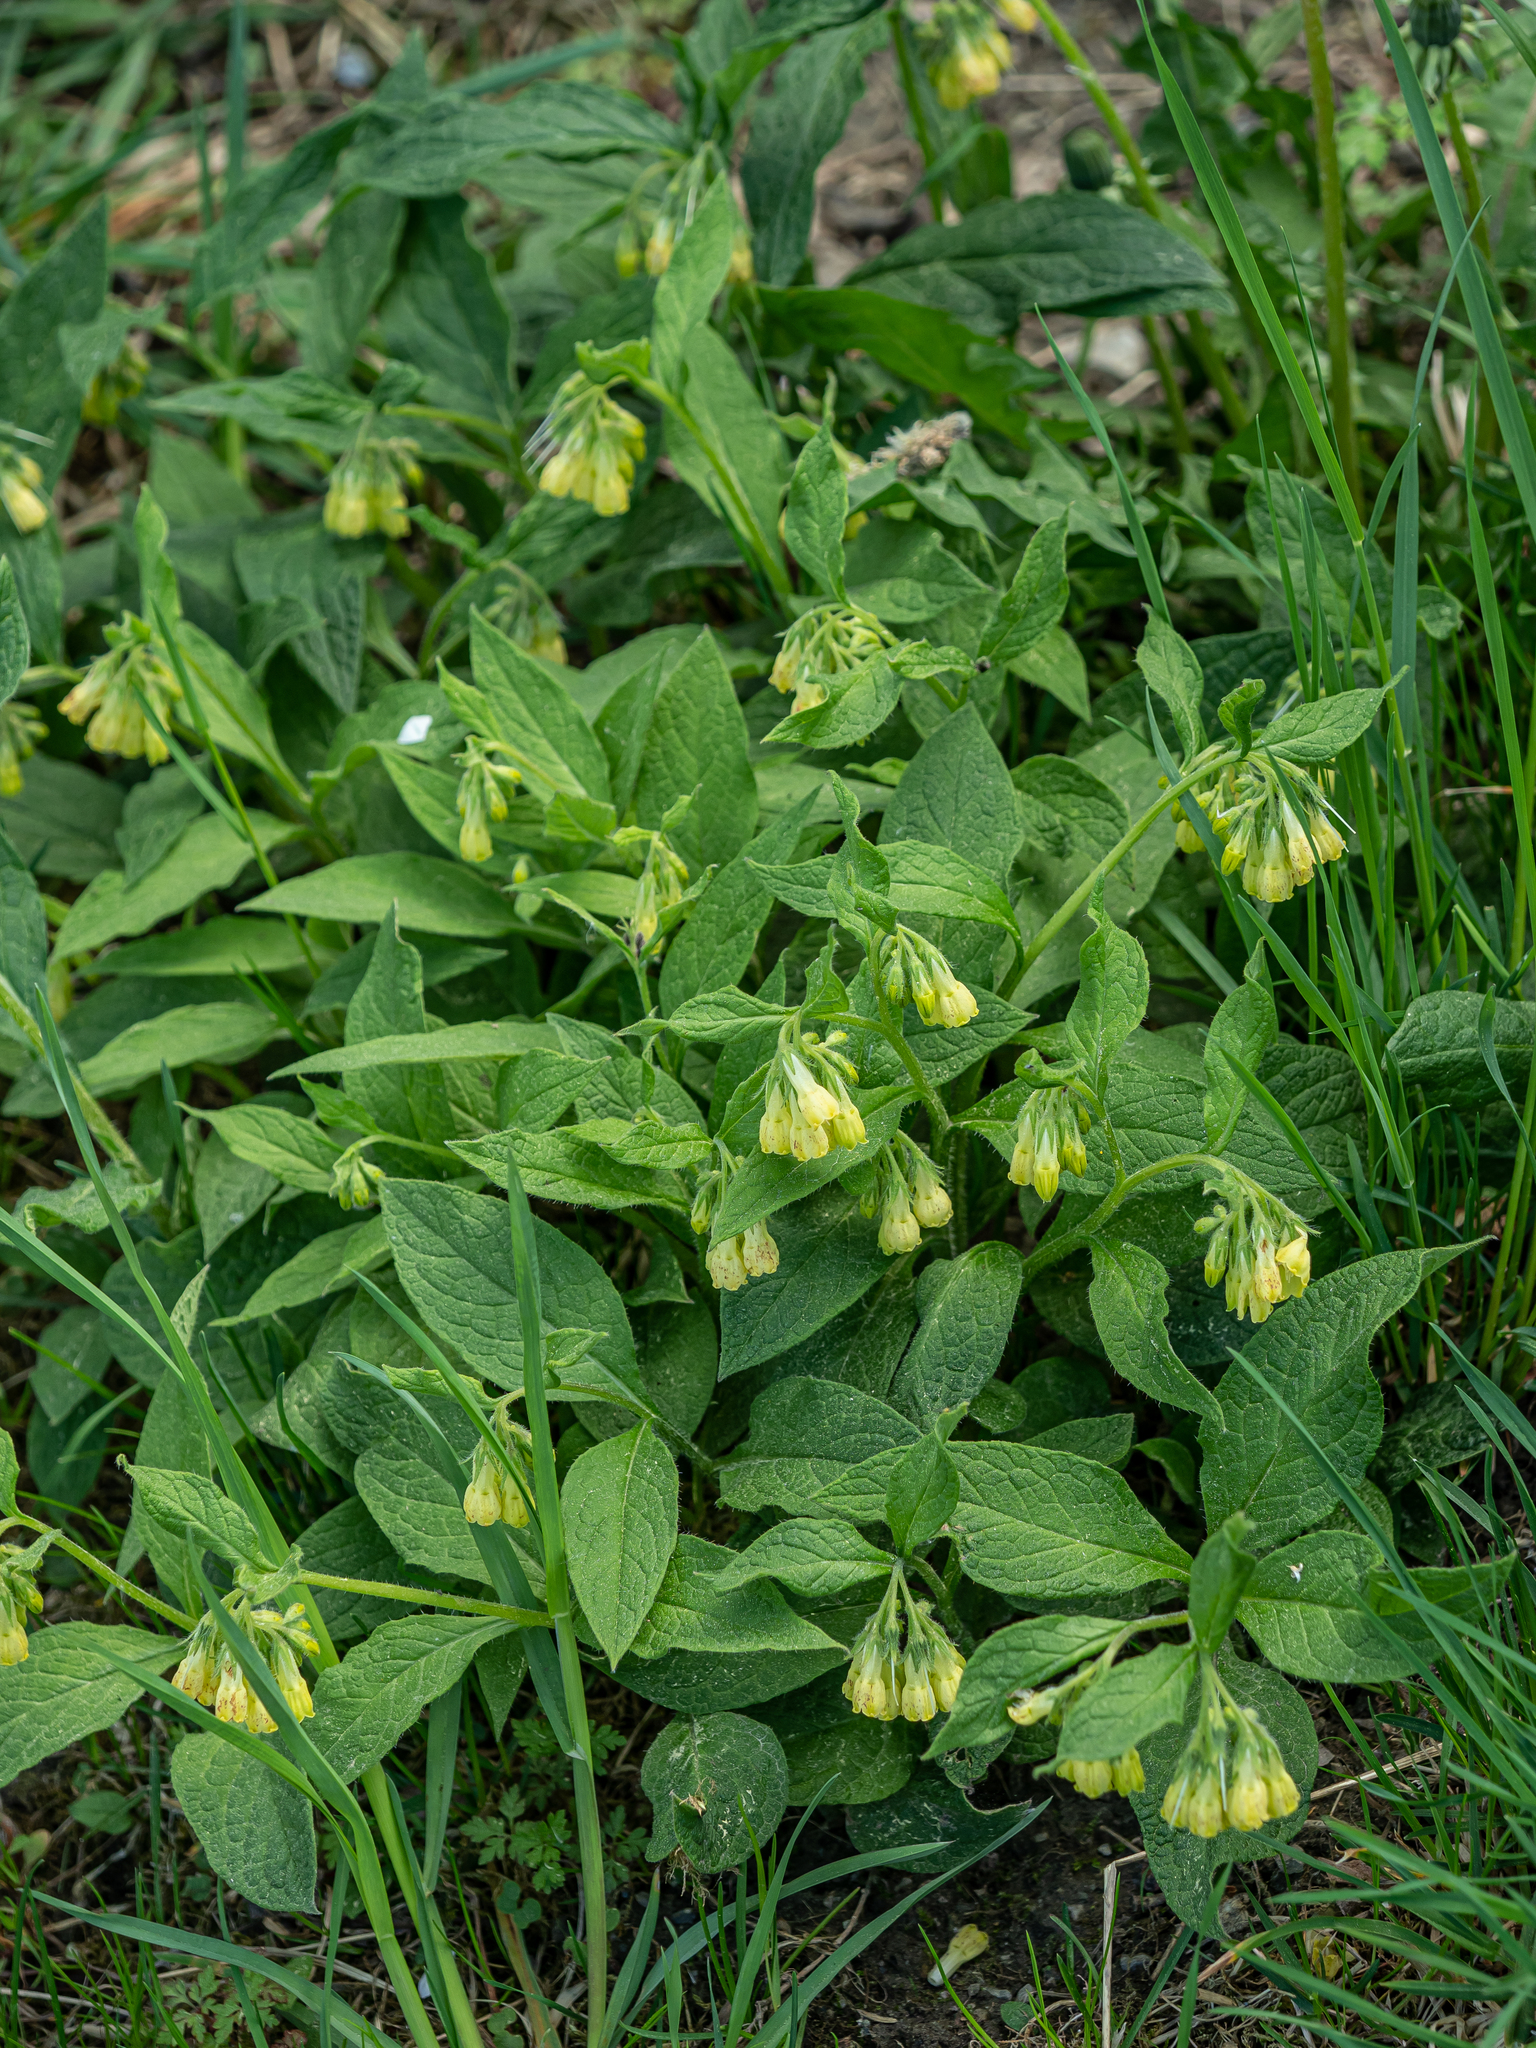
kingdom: Plantae
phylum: Tracheophyta
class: Magnoliopsida
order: Boraginales
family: Boraginaceae
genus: Symphytum
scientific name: Symphytum tuberosum
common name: Tuberous comfrey
